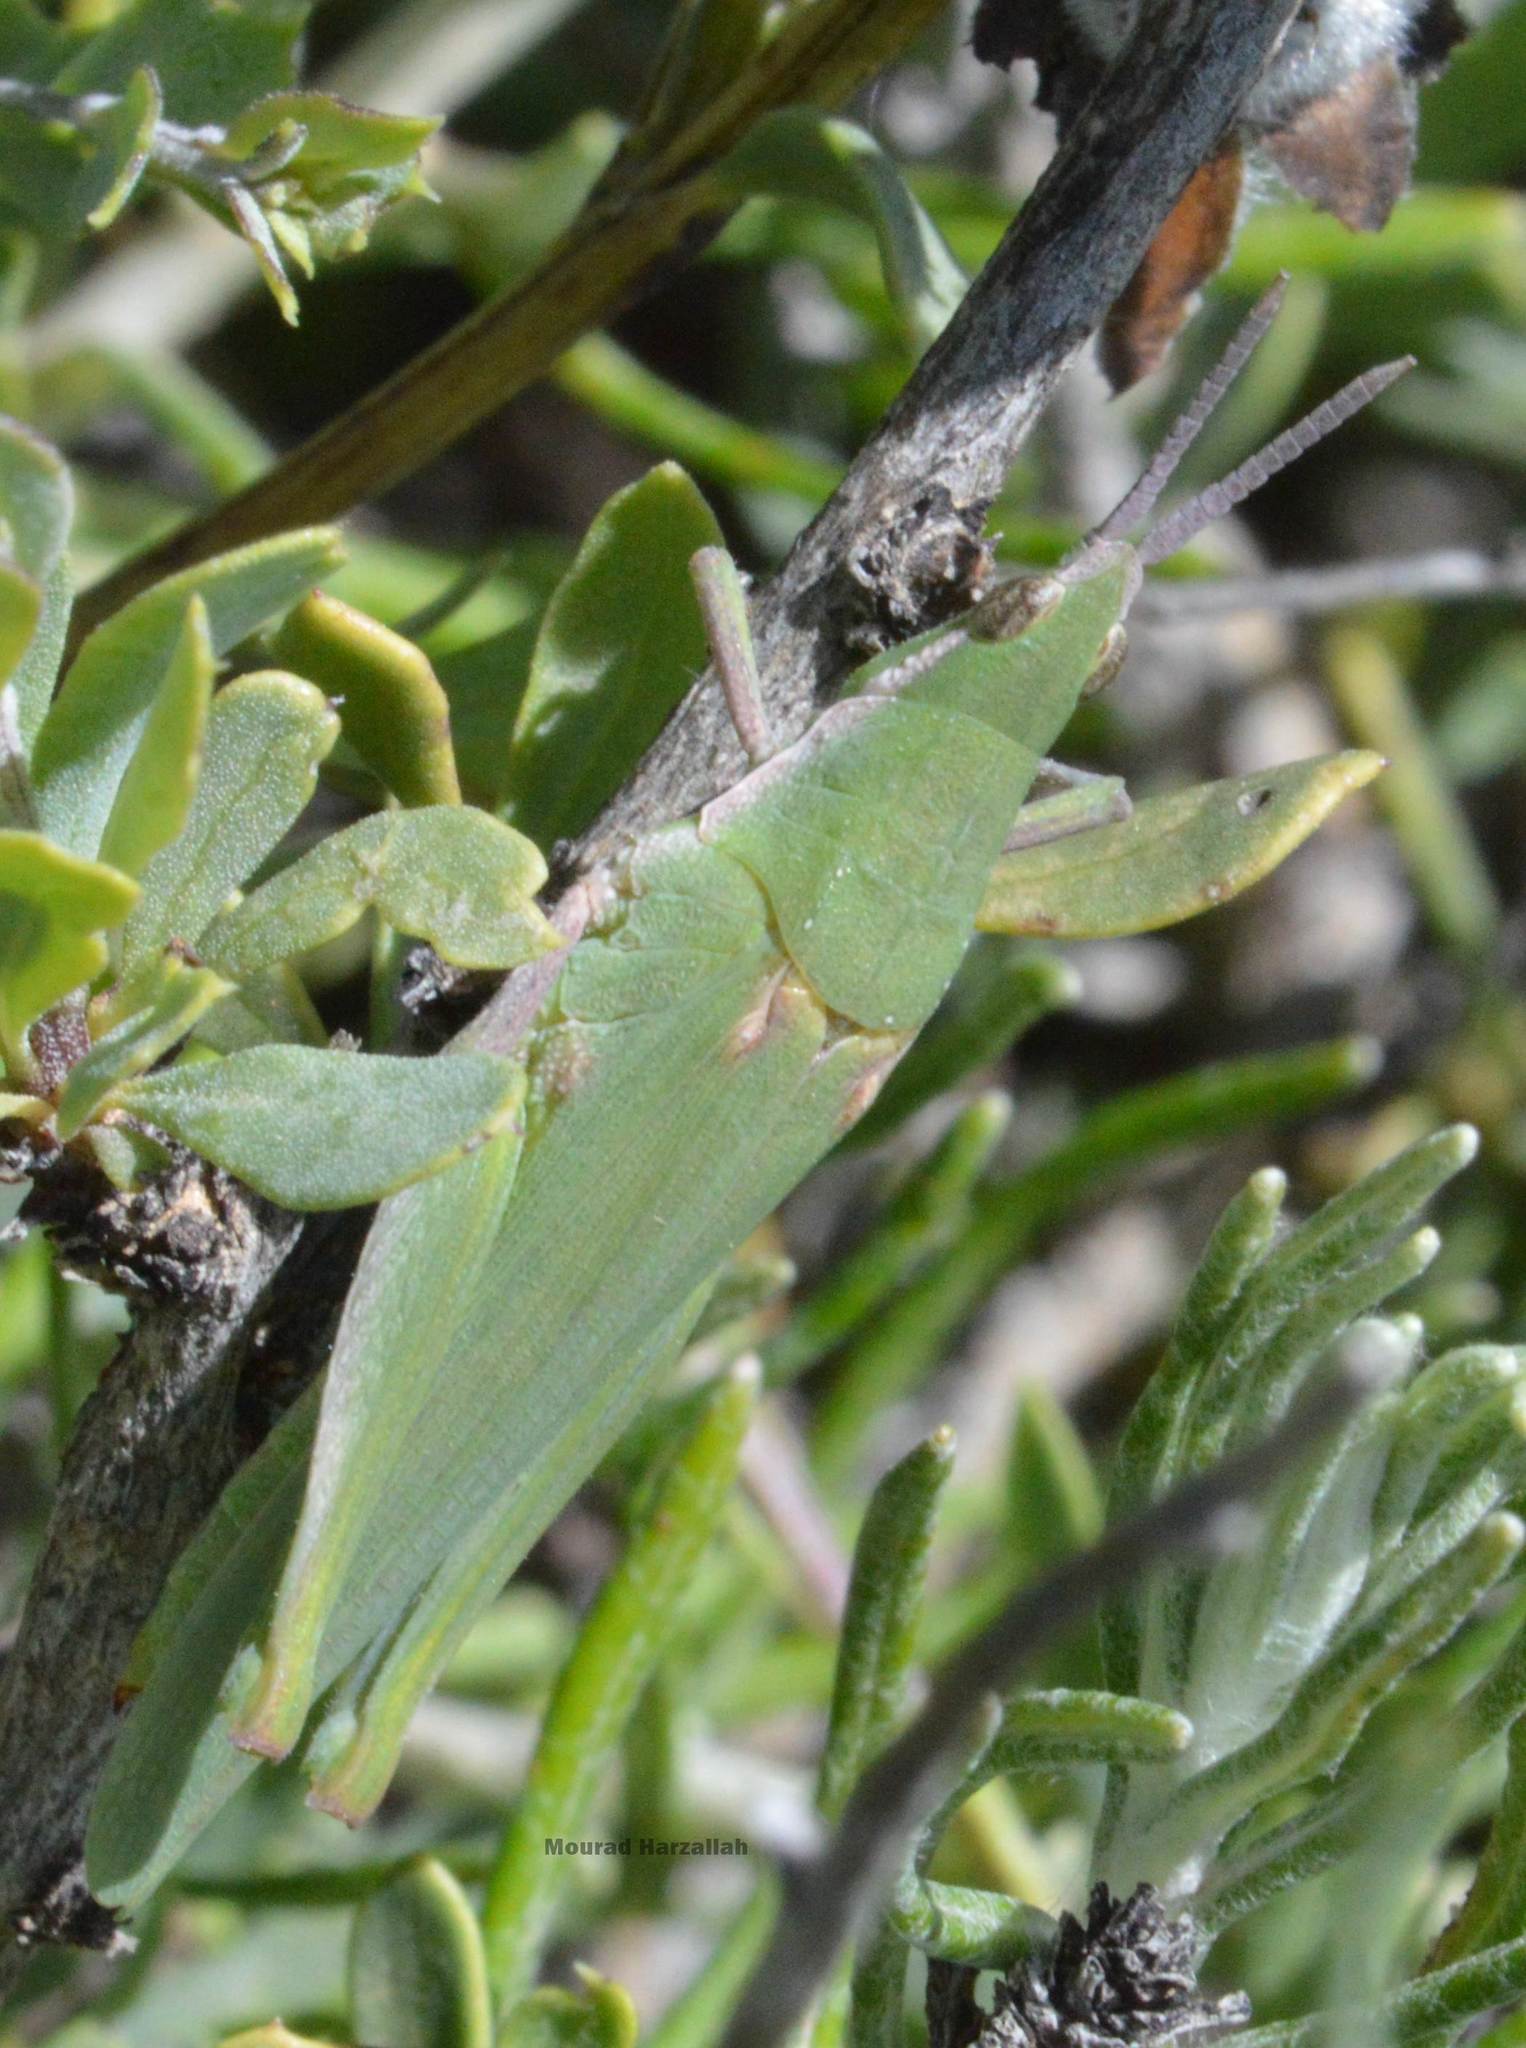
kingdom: Animalia
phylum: Arthropoda
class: Insecta
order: Orthoptera
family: Pyrgomorphidae
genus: Pyrgomorpha
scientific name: Pyrgomorpha conica
